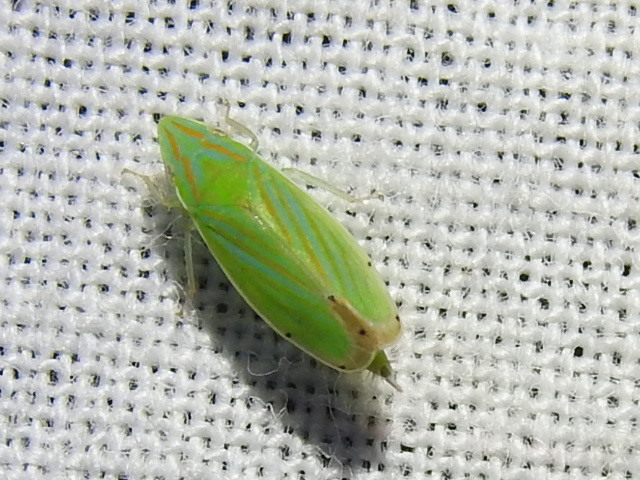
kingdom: Animalia
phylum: Arthropoda
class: Insecta
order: Hemiptera
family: Cicadellidae
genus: Spangbergiella
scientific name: Spangbergiella quadripunctata
